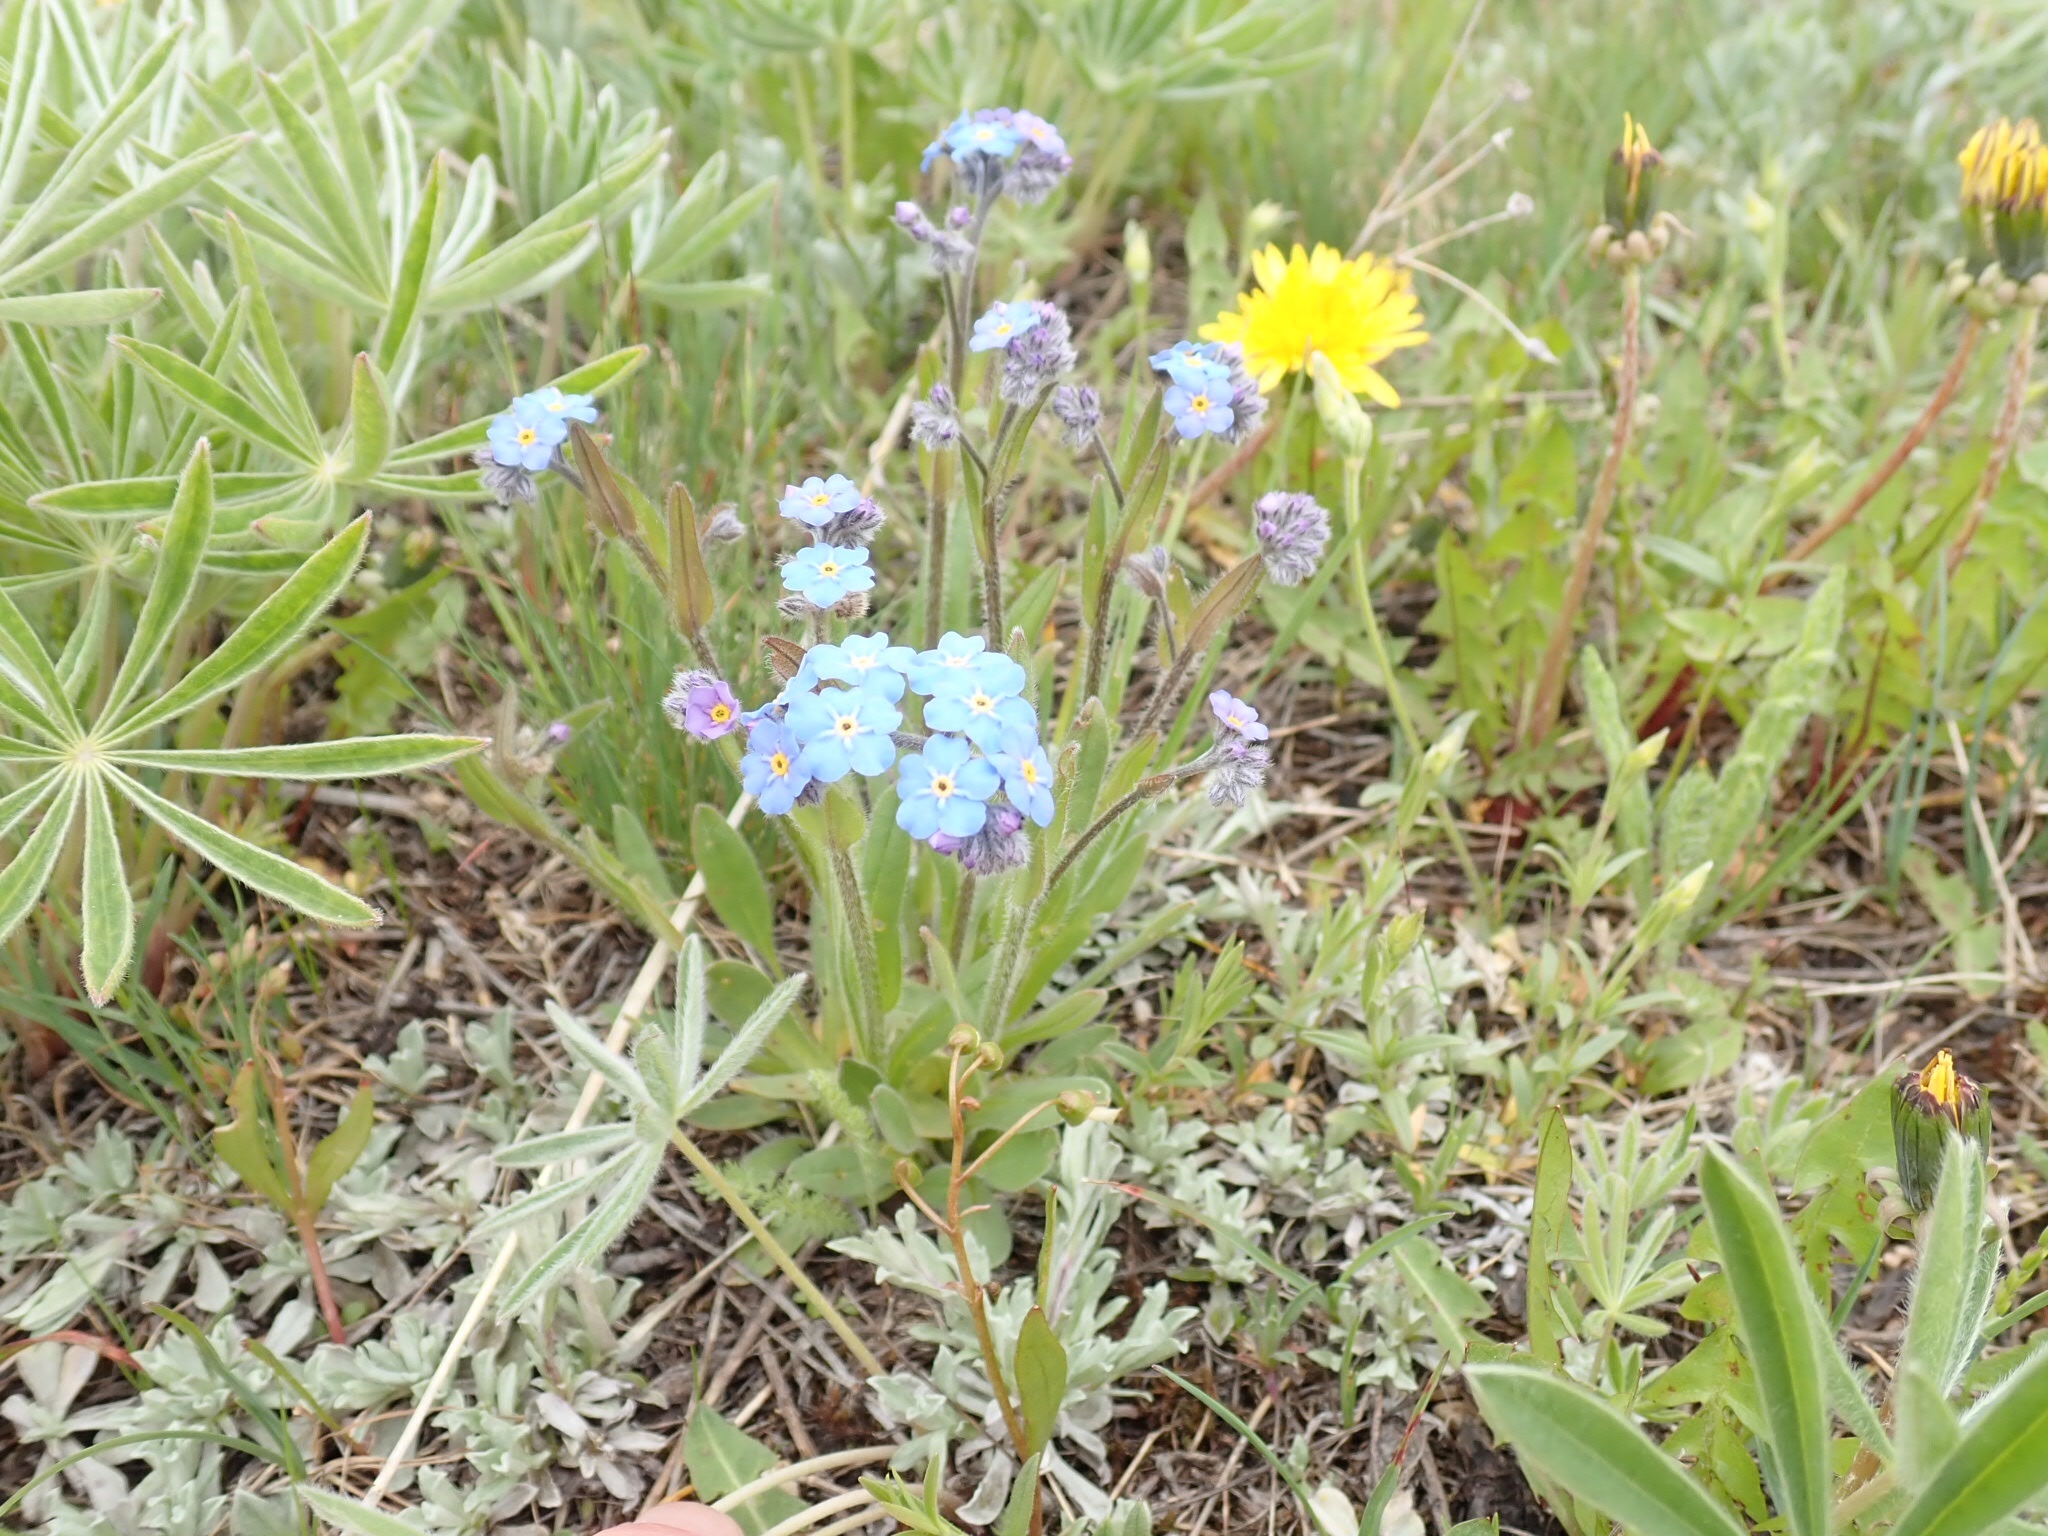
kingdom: Plantae
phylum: Tracheophyta
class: Magnoliopsida
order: Boraginales
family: Boraginaceae
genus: Myosotis
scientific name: Myosotis asiatica
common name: Asian forget-me-not
